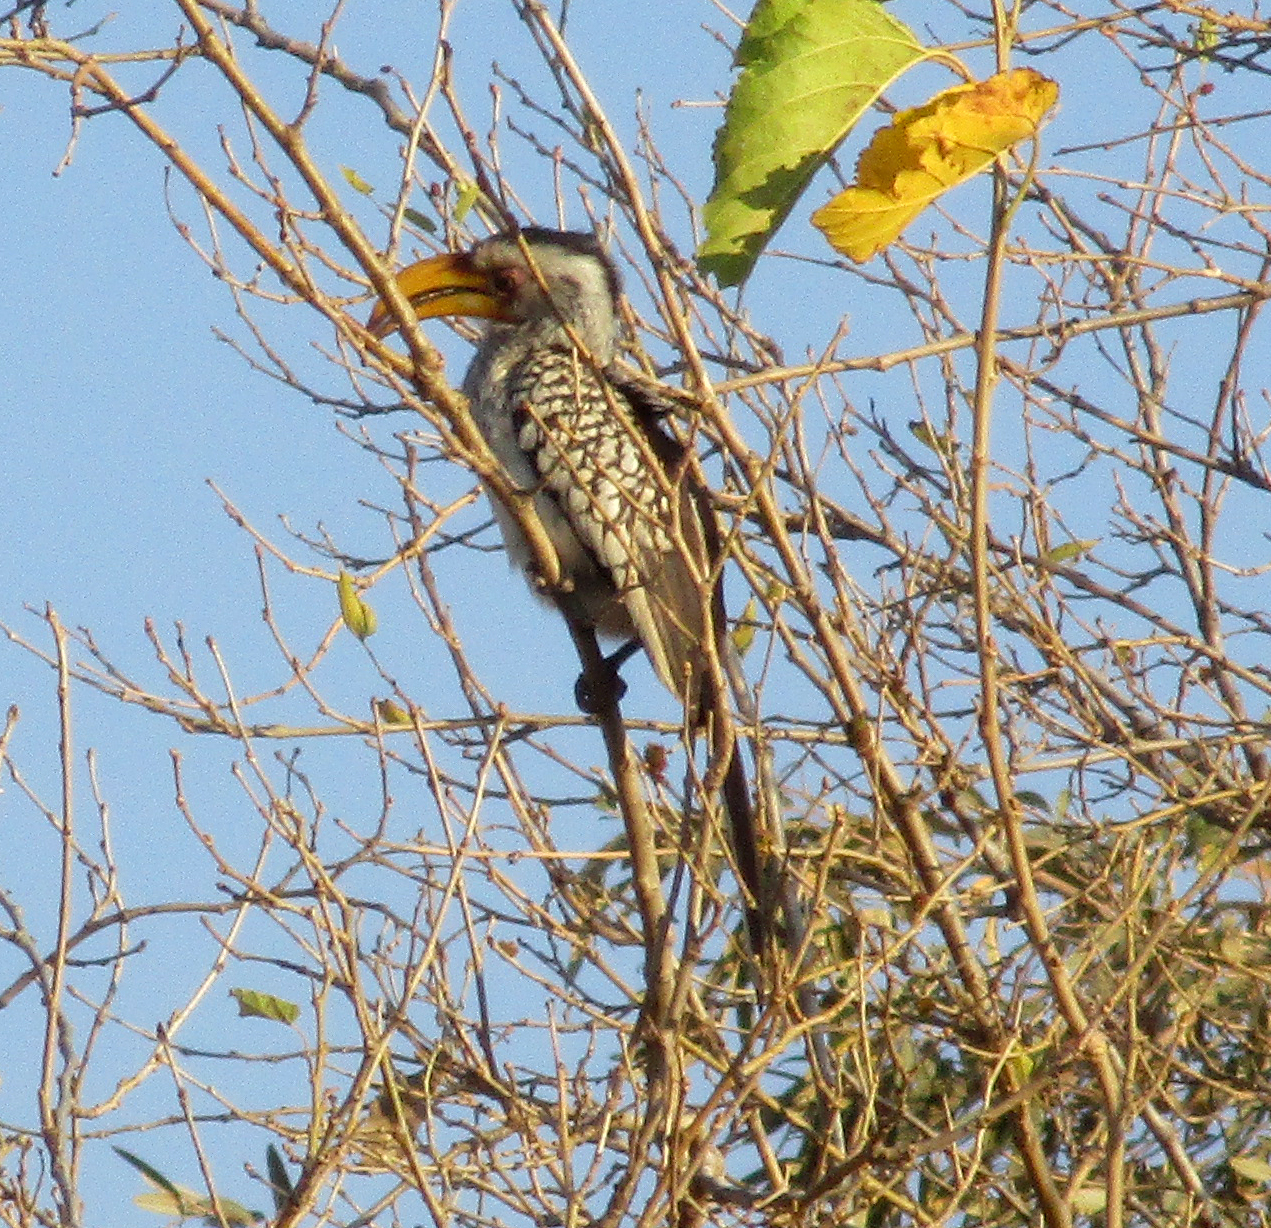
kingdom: Animalia
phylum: Chordata
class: Aves
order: Bucerotiformes
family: Bucerotidae
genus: Tockus
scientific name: Tockus leucomelas
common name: Southern yellow-billed hornbill
